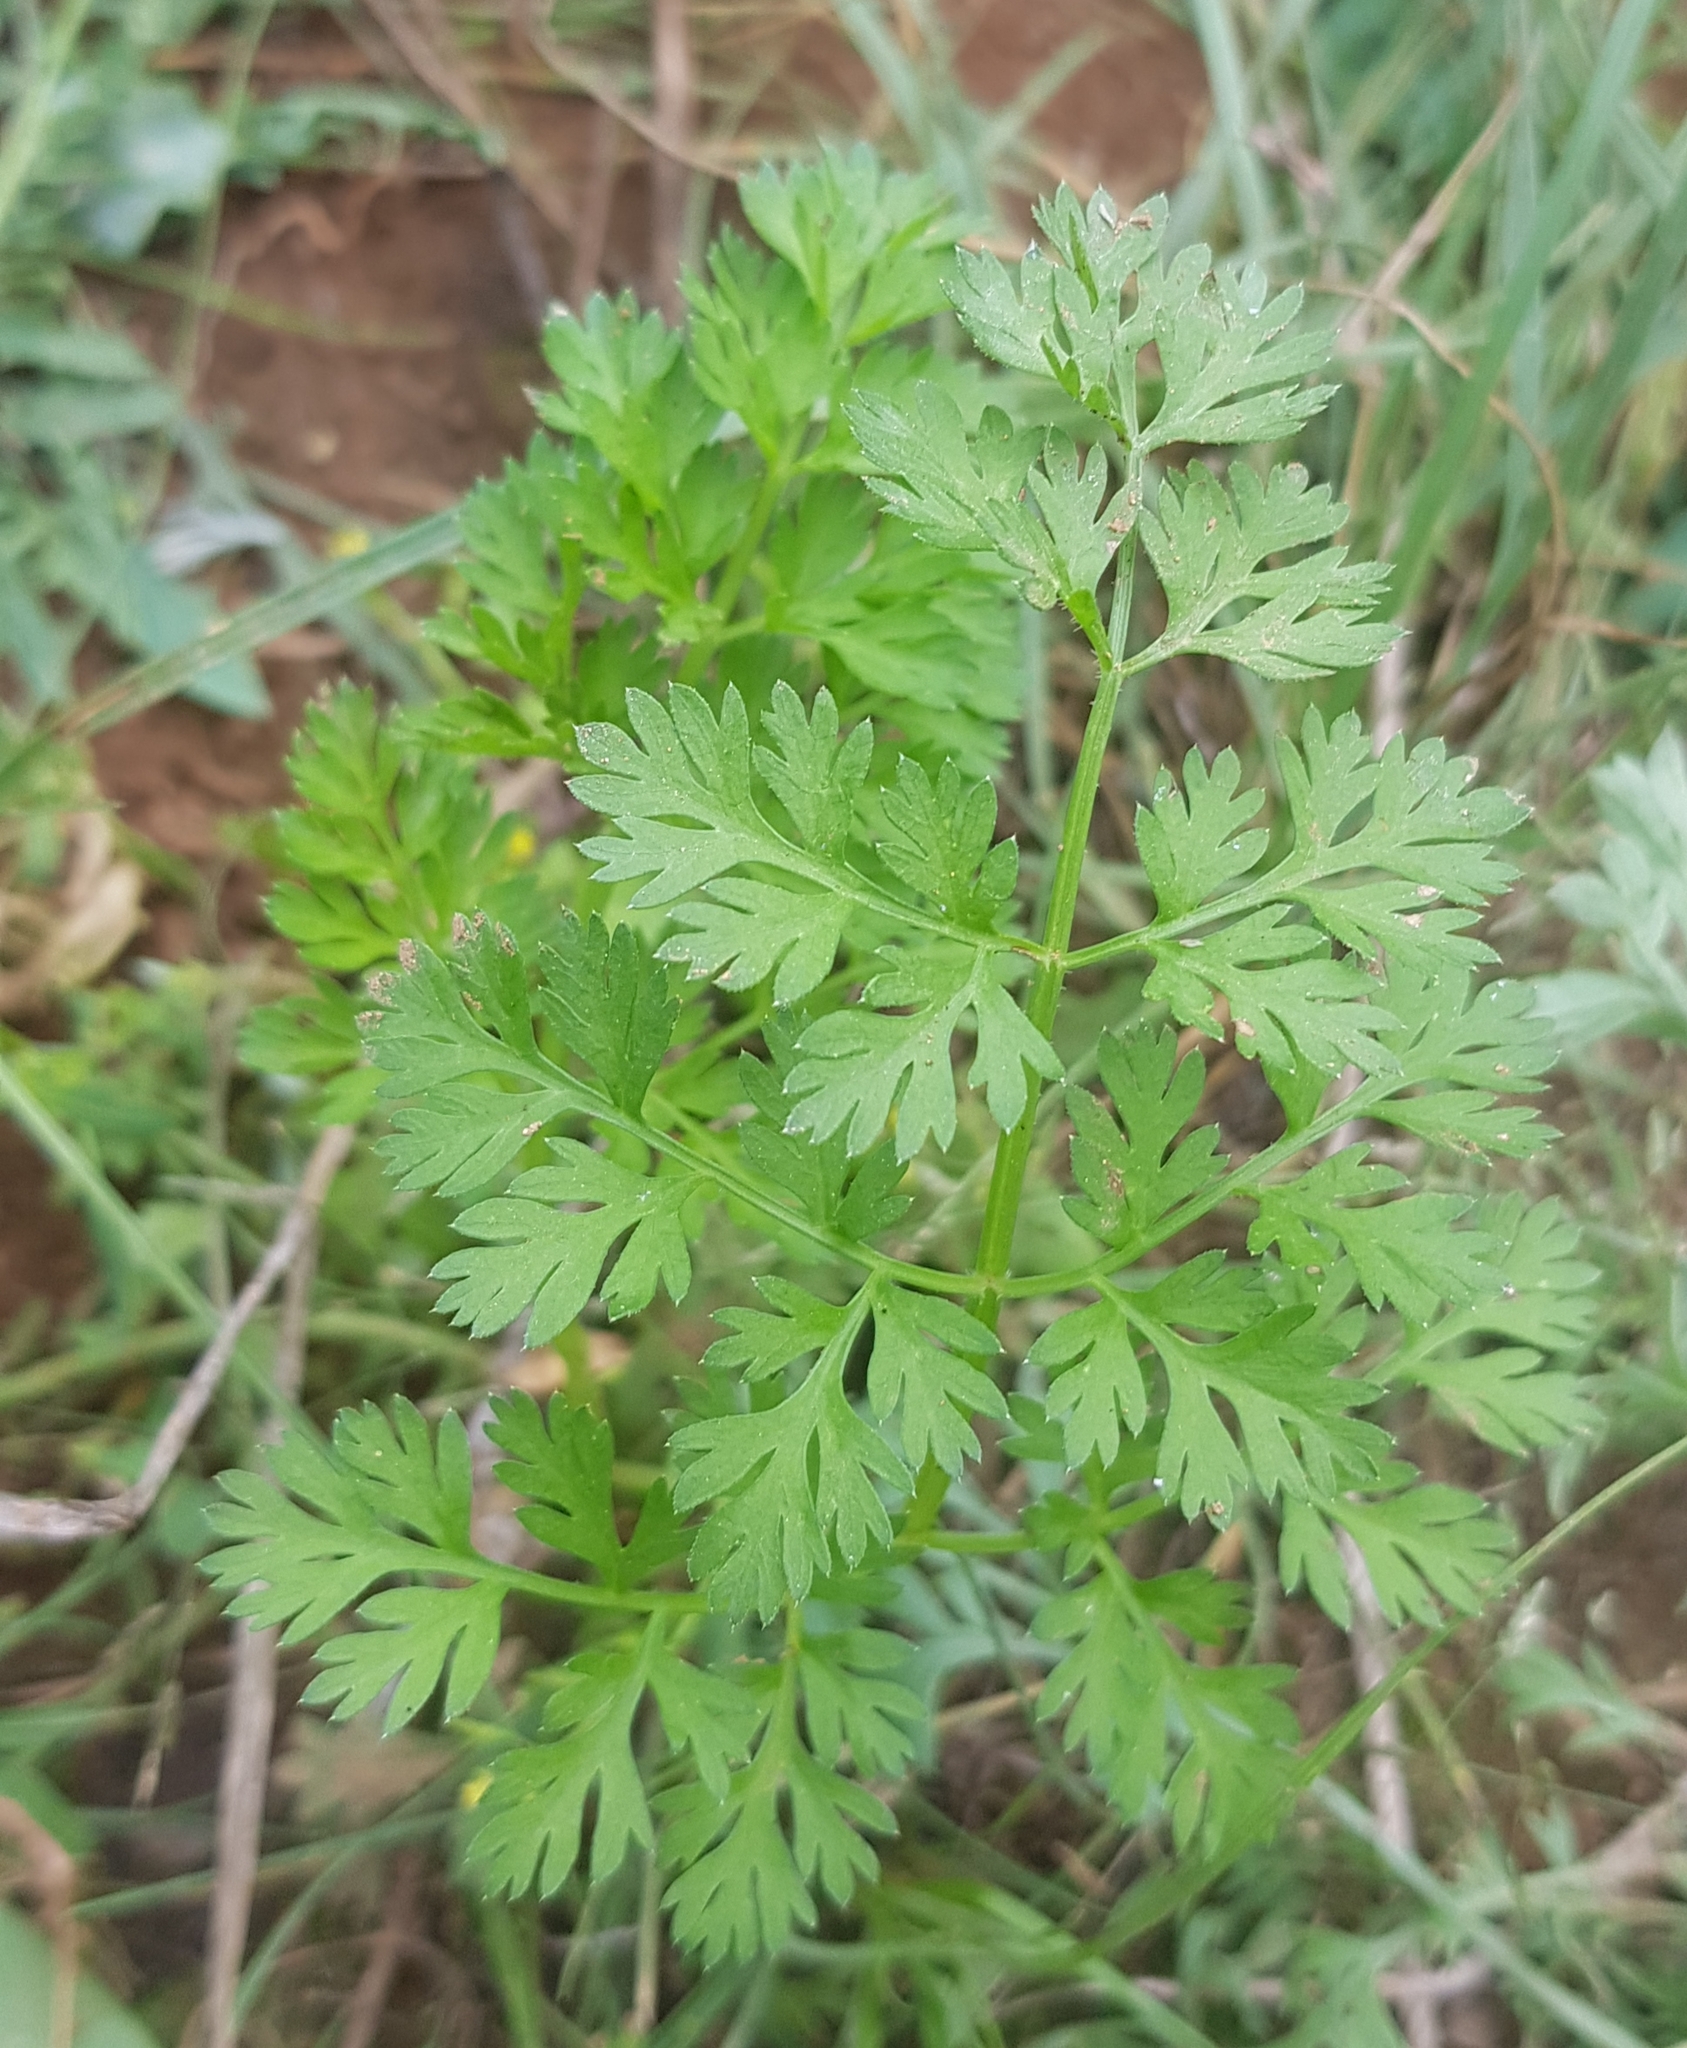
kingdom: Plantae
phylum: Tracheophyta
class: Magnoliopsida
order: Apiales
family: Apiaceae
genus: Coriandrum
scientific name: Coriandrum sativum
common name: Coriander
